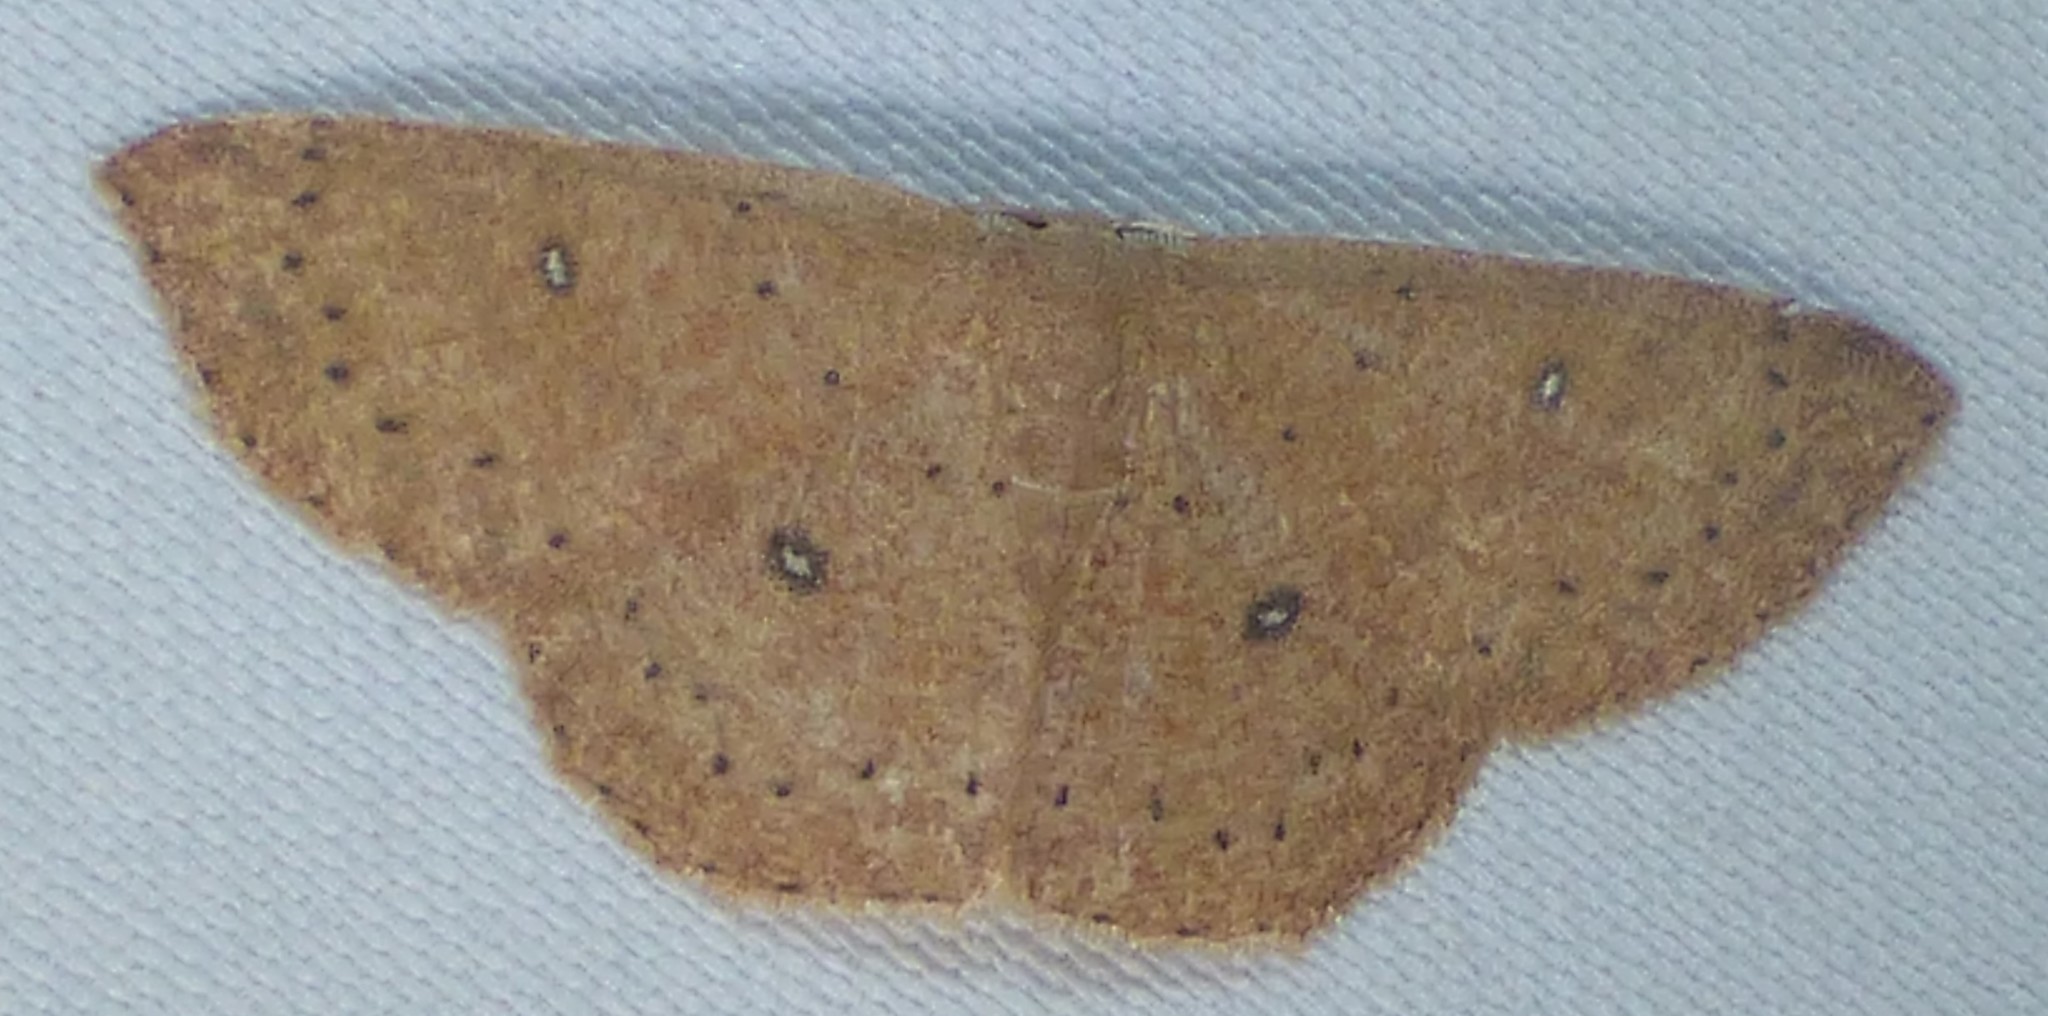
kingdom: Animalia
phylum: Arthropoda
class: Insecta
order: Lepidoptera
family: Geometridae
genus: Cyclophora
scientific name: Cyclophora packardi
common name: Packard's wave
